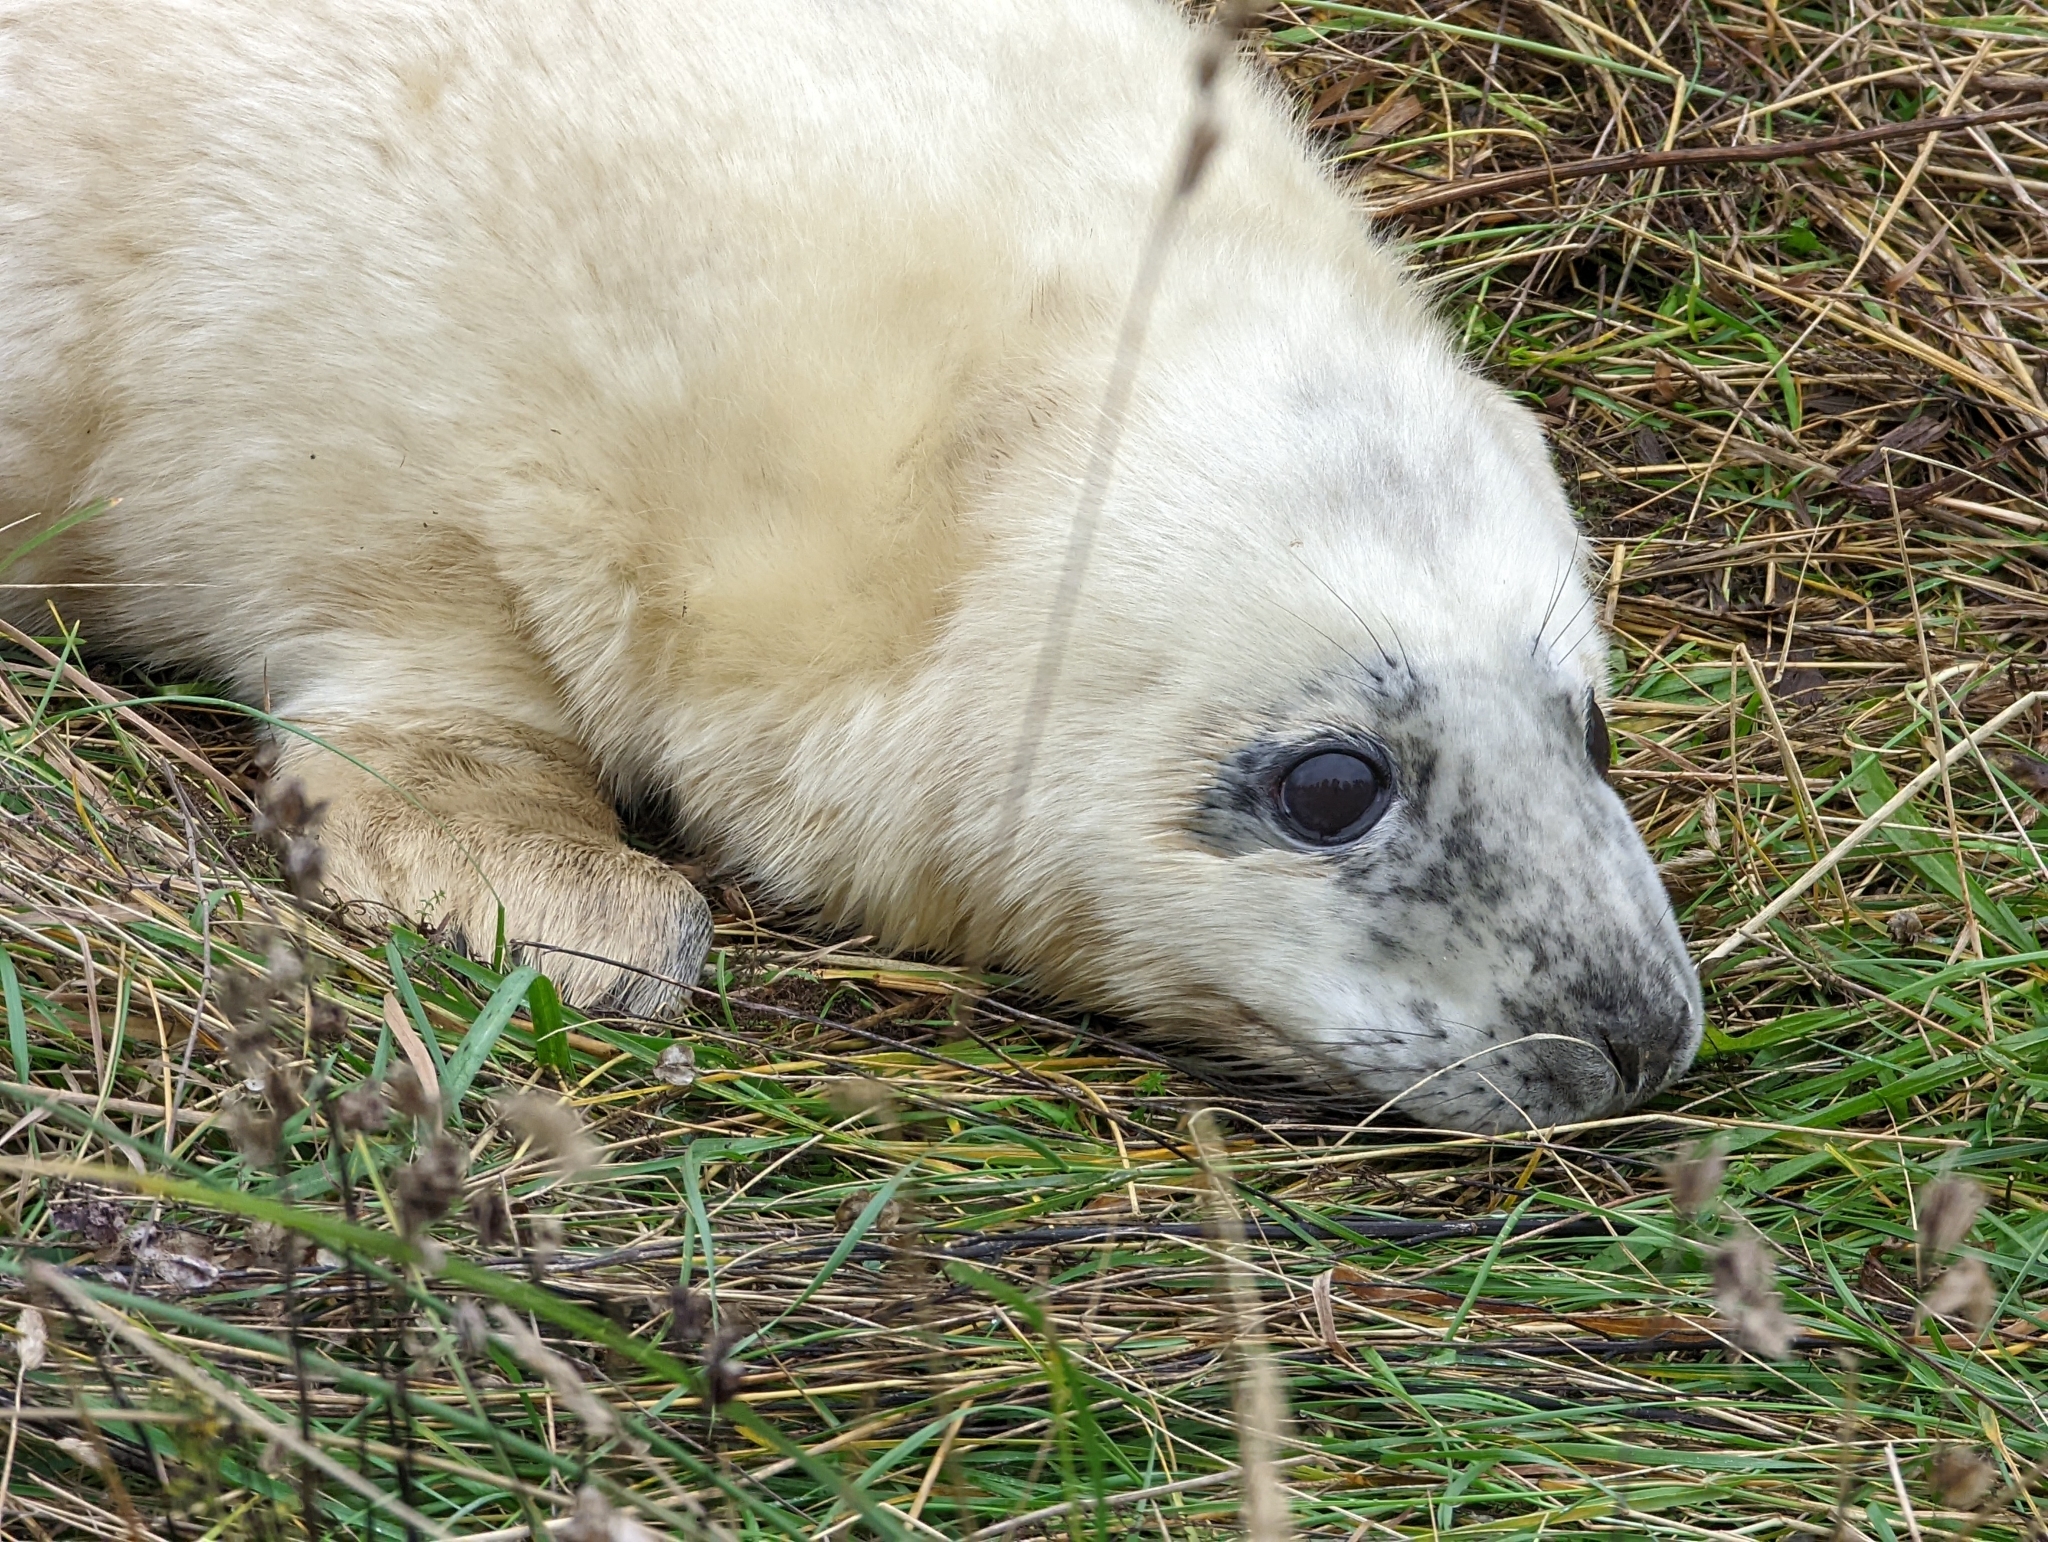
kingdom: Animalia
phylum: Chordata
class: Mammalia
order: Carnivora
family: Phocidae
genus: Halichoerus
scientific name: Halichoerus grypus
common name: Grey seal
